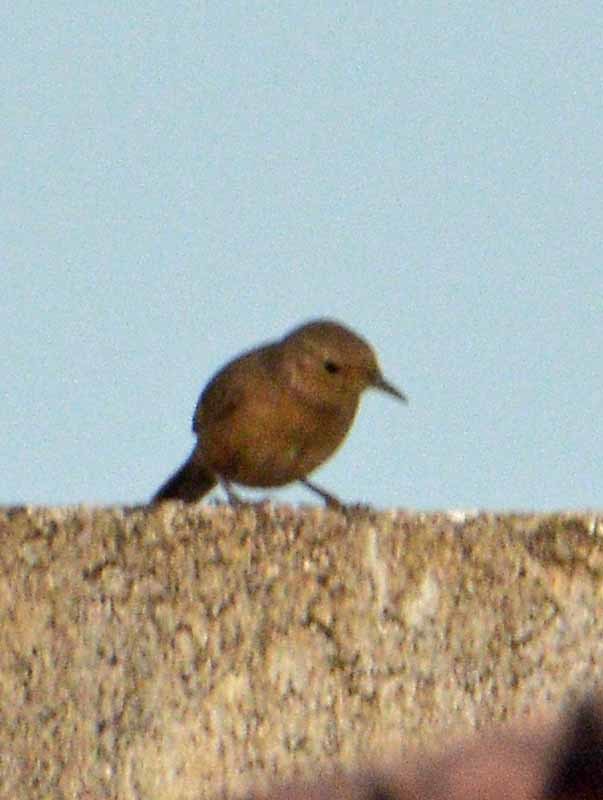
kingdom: Animalia
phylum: Chordata
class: Aves
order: Passeriformes
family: Troglodytidae
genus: Troglodytes
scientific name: Troglodytes aedon
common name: House wren
